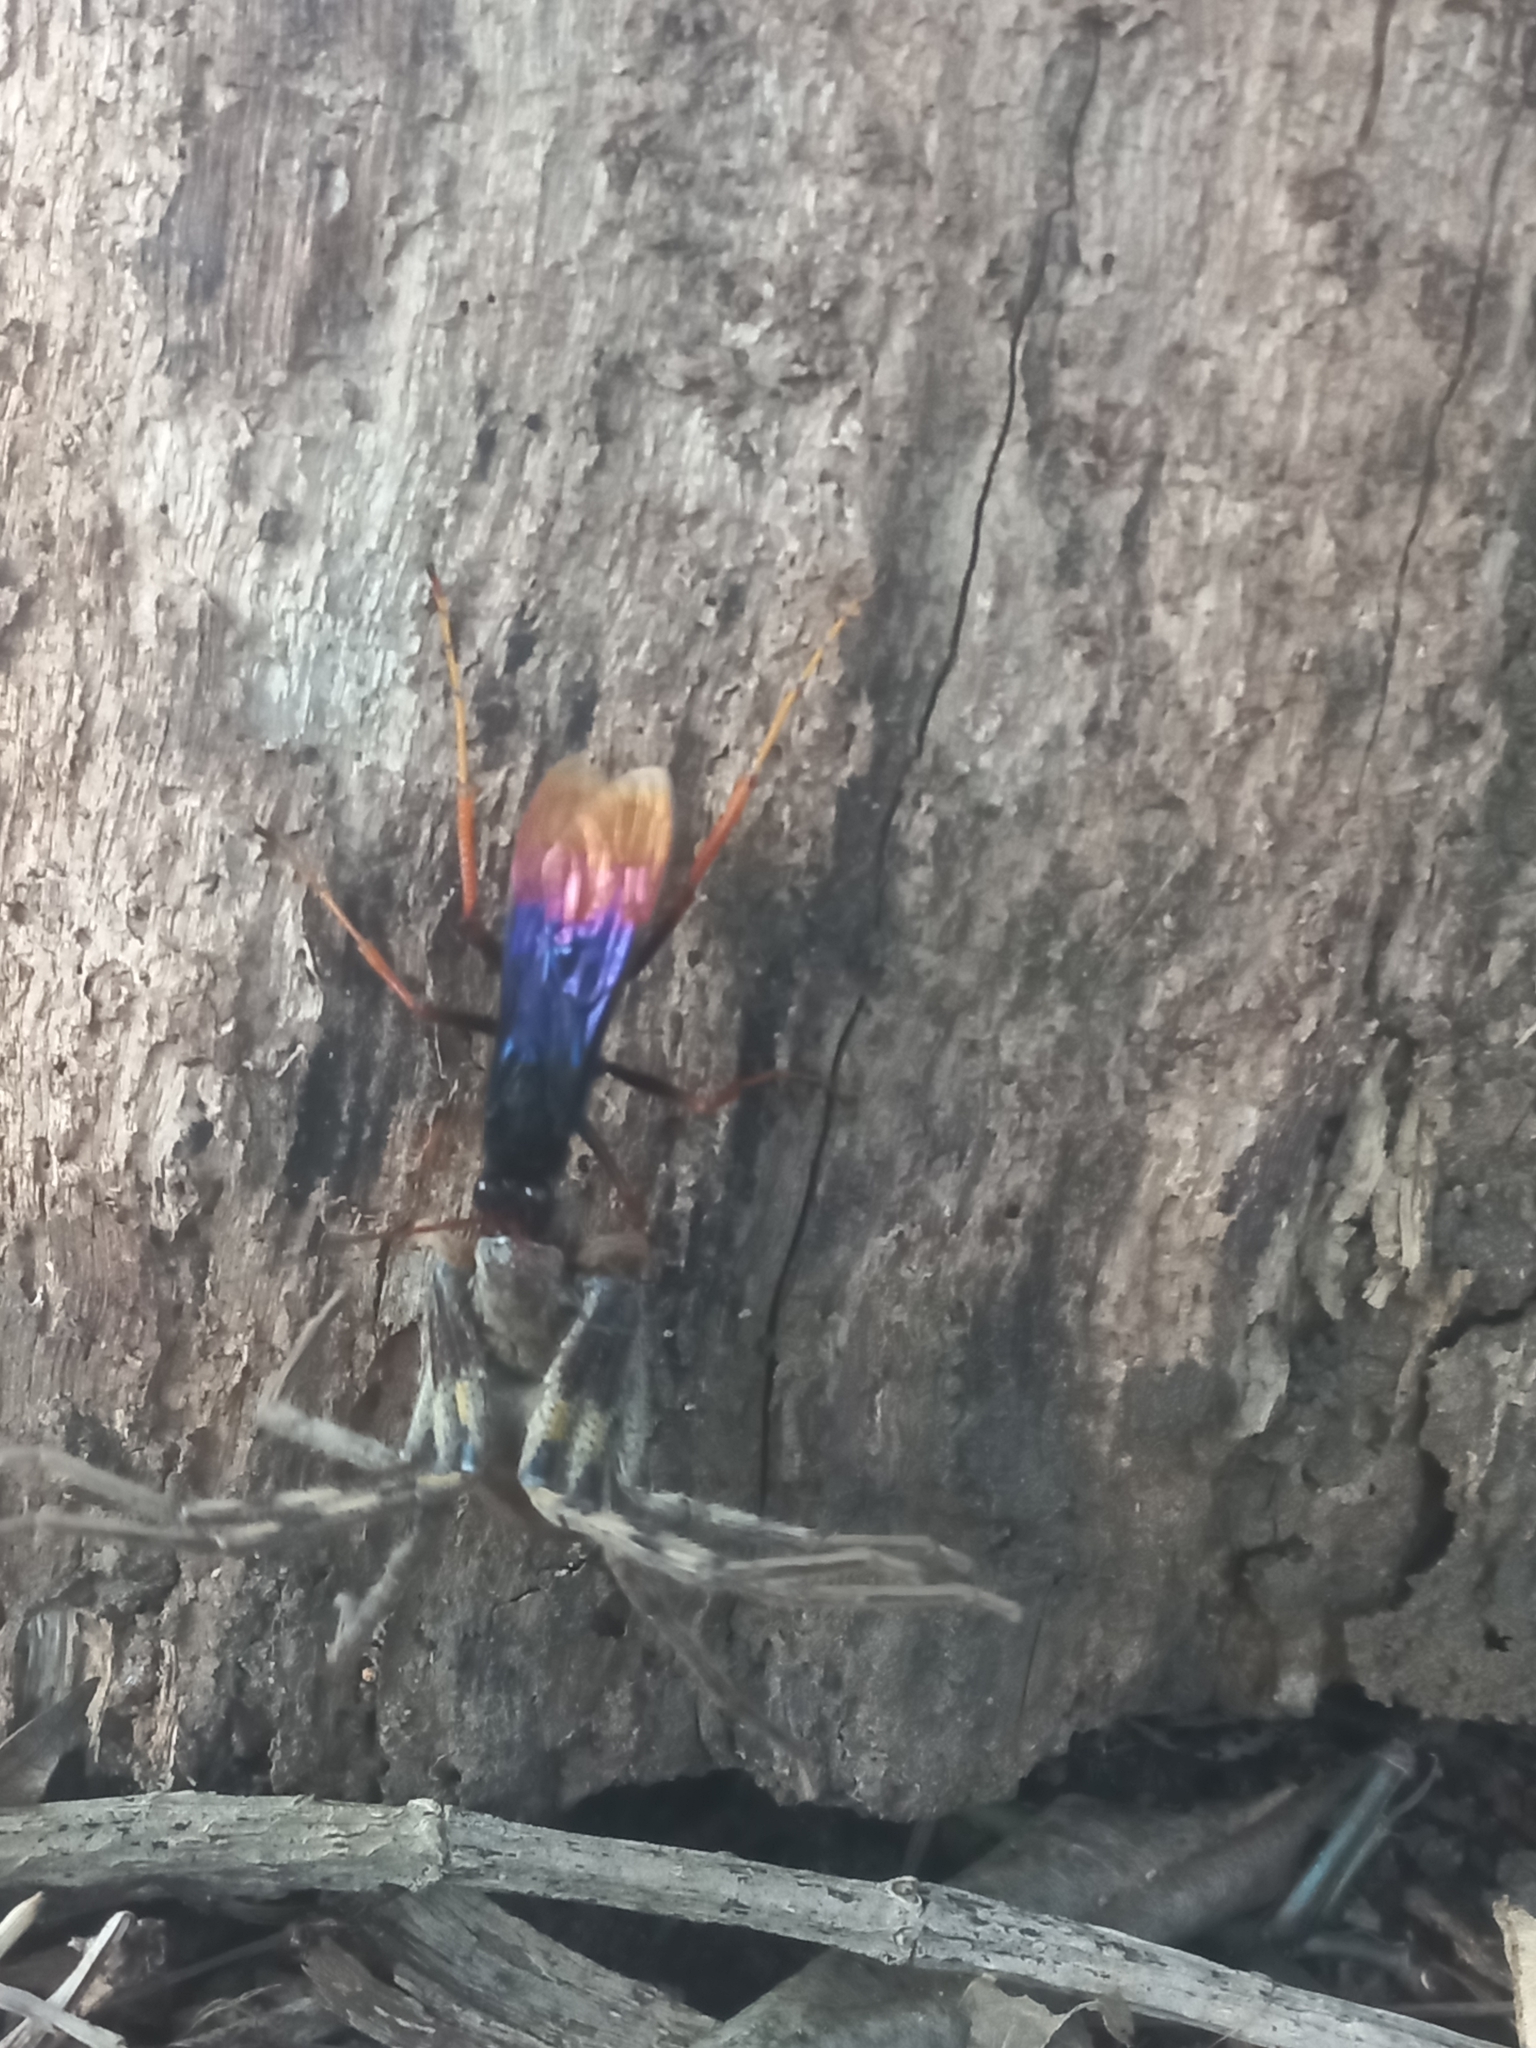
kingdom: Animalia
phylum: Arthropoda
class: Insecta
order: Hymenoptera
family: Pompilidae
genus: Java
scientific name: Java caroliwaterhousei
